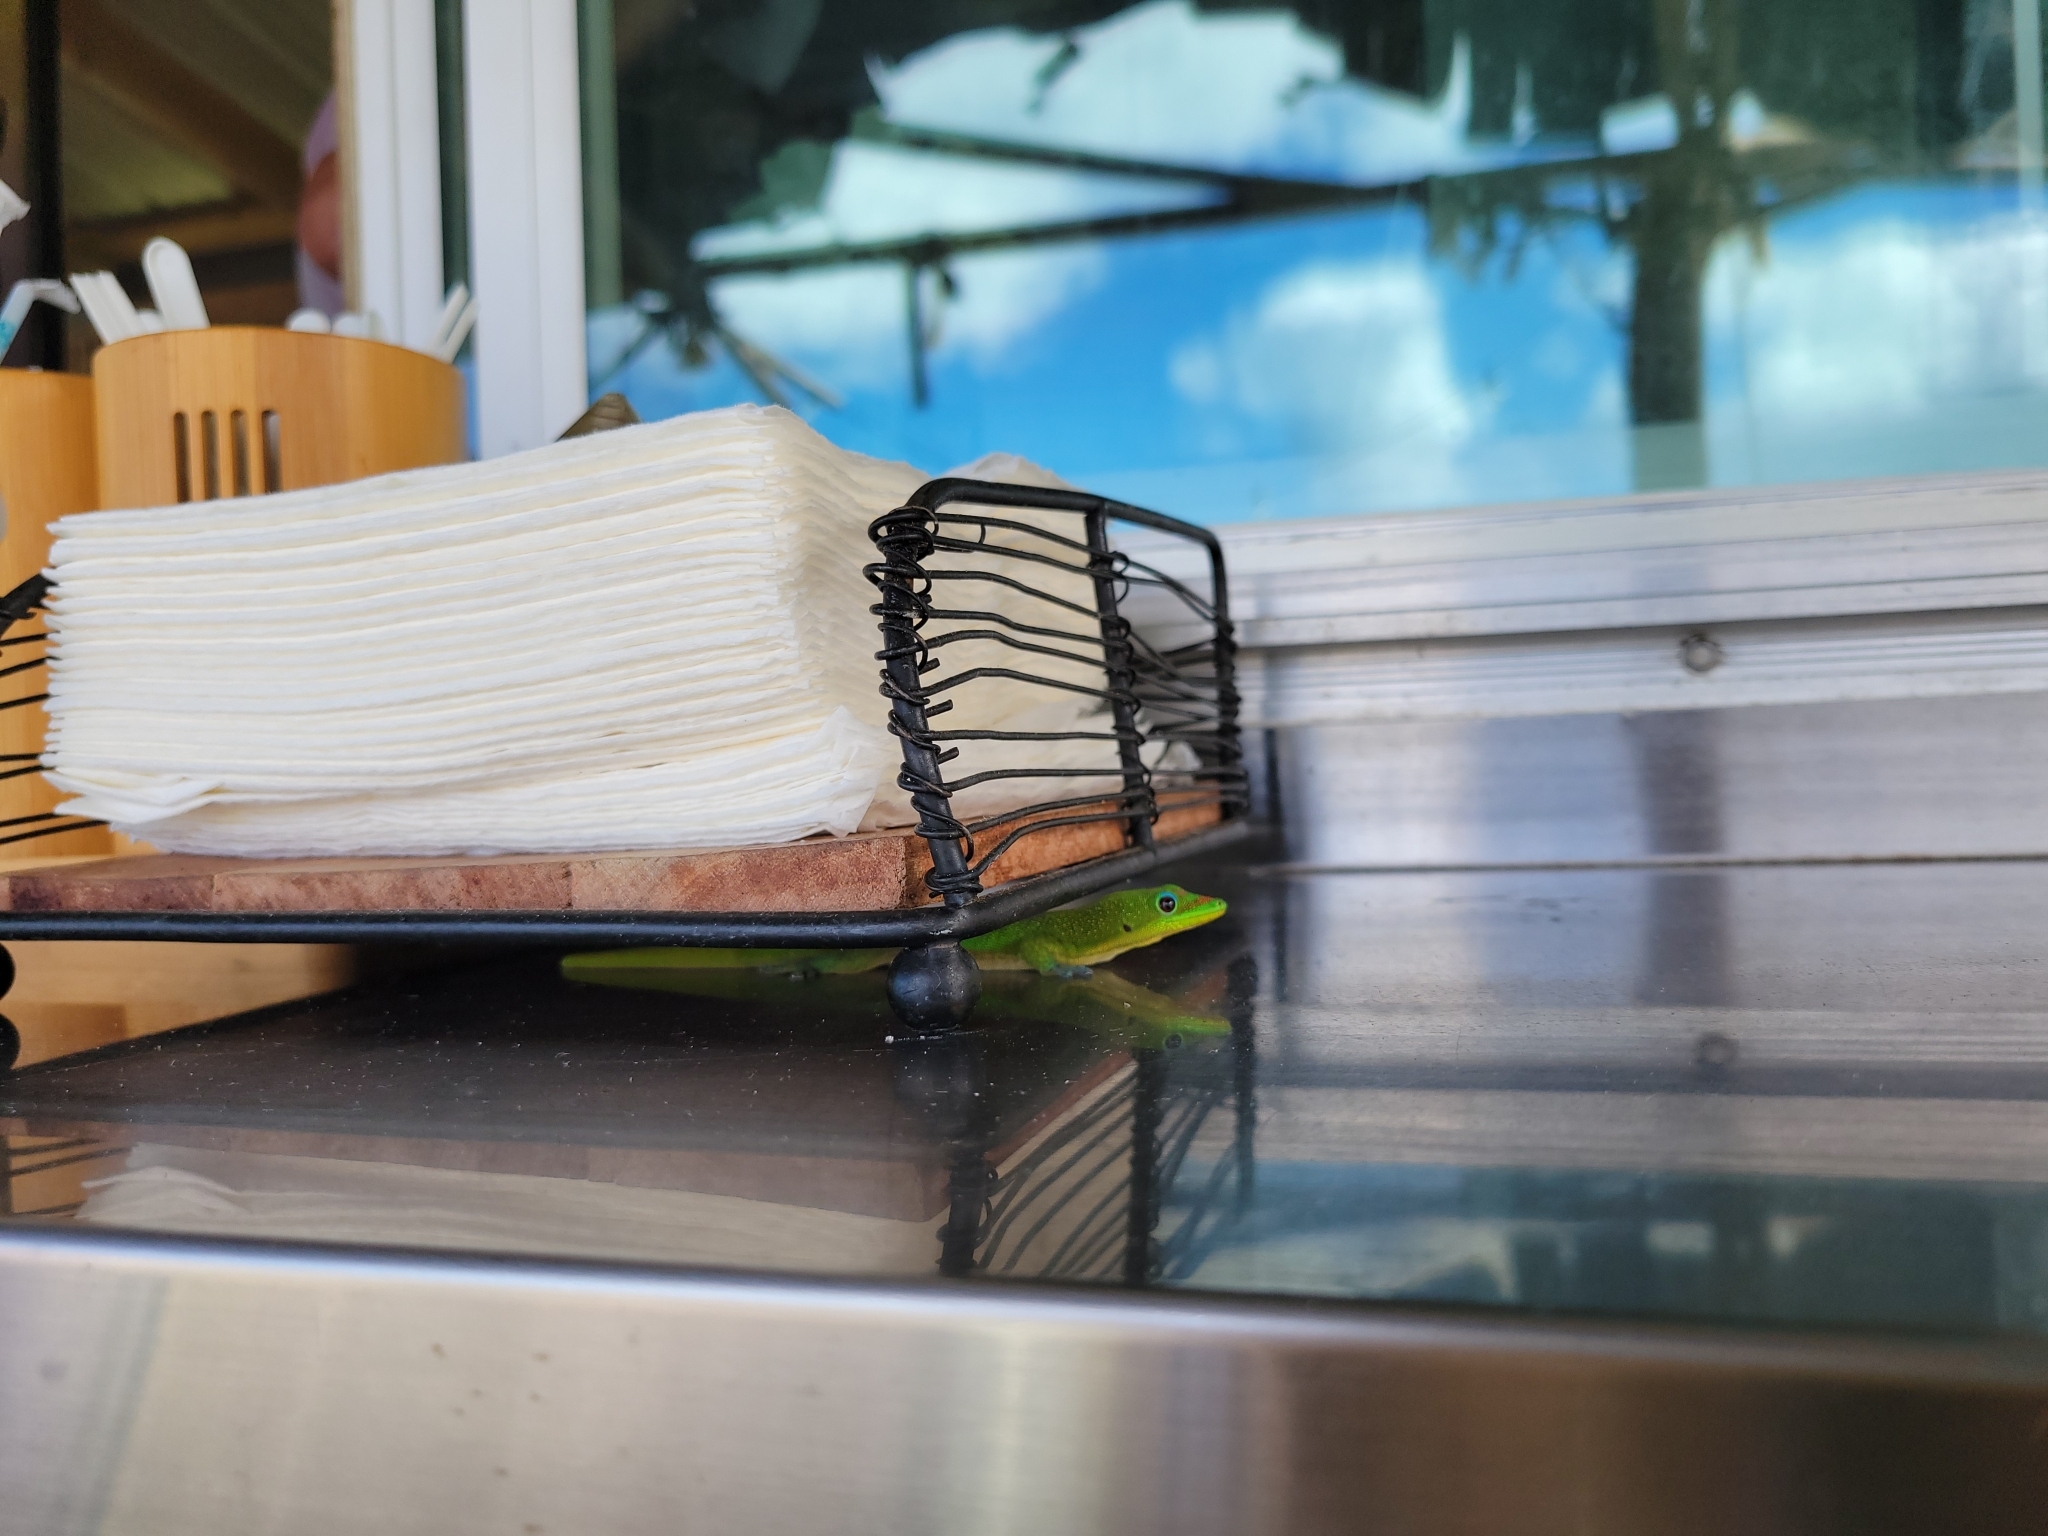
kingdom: Animalia
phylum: Chordata
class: Squamata
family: Gekkonidae
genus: Phelsuma
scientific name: Phelsuma laticauda
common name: Gold dust day gecko
